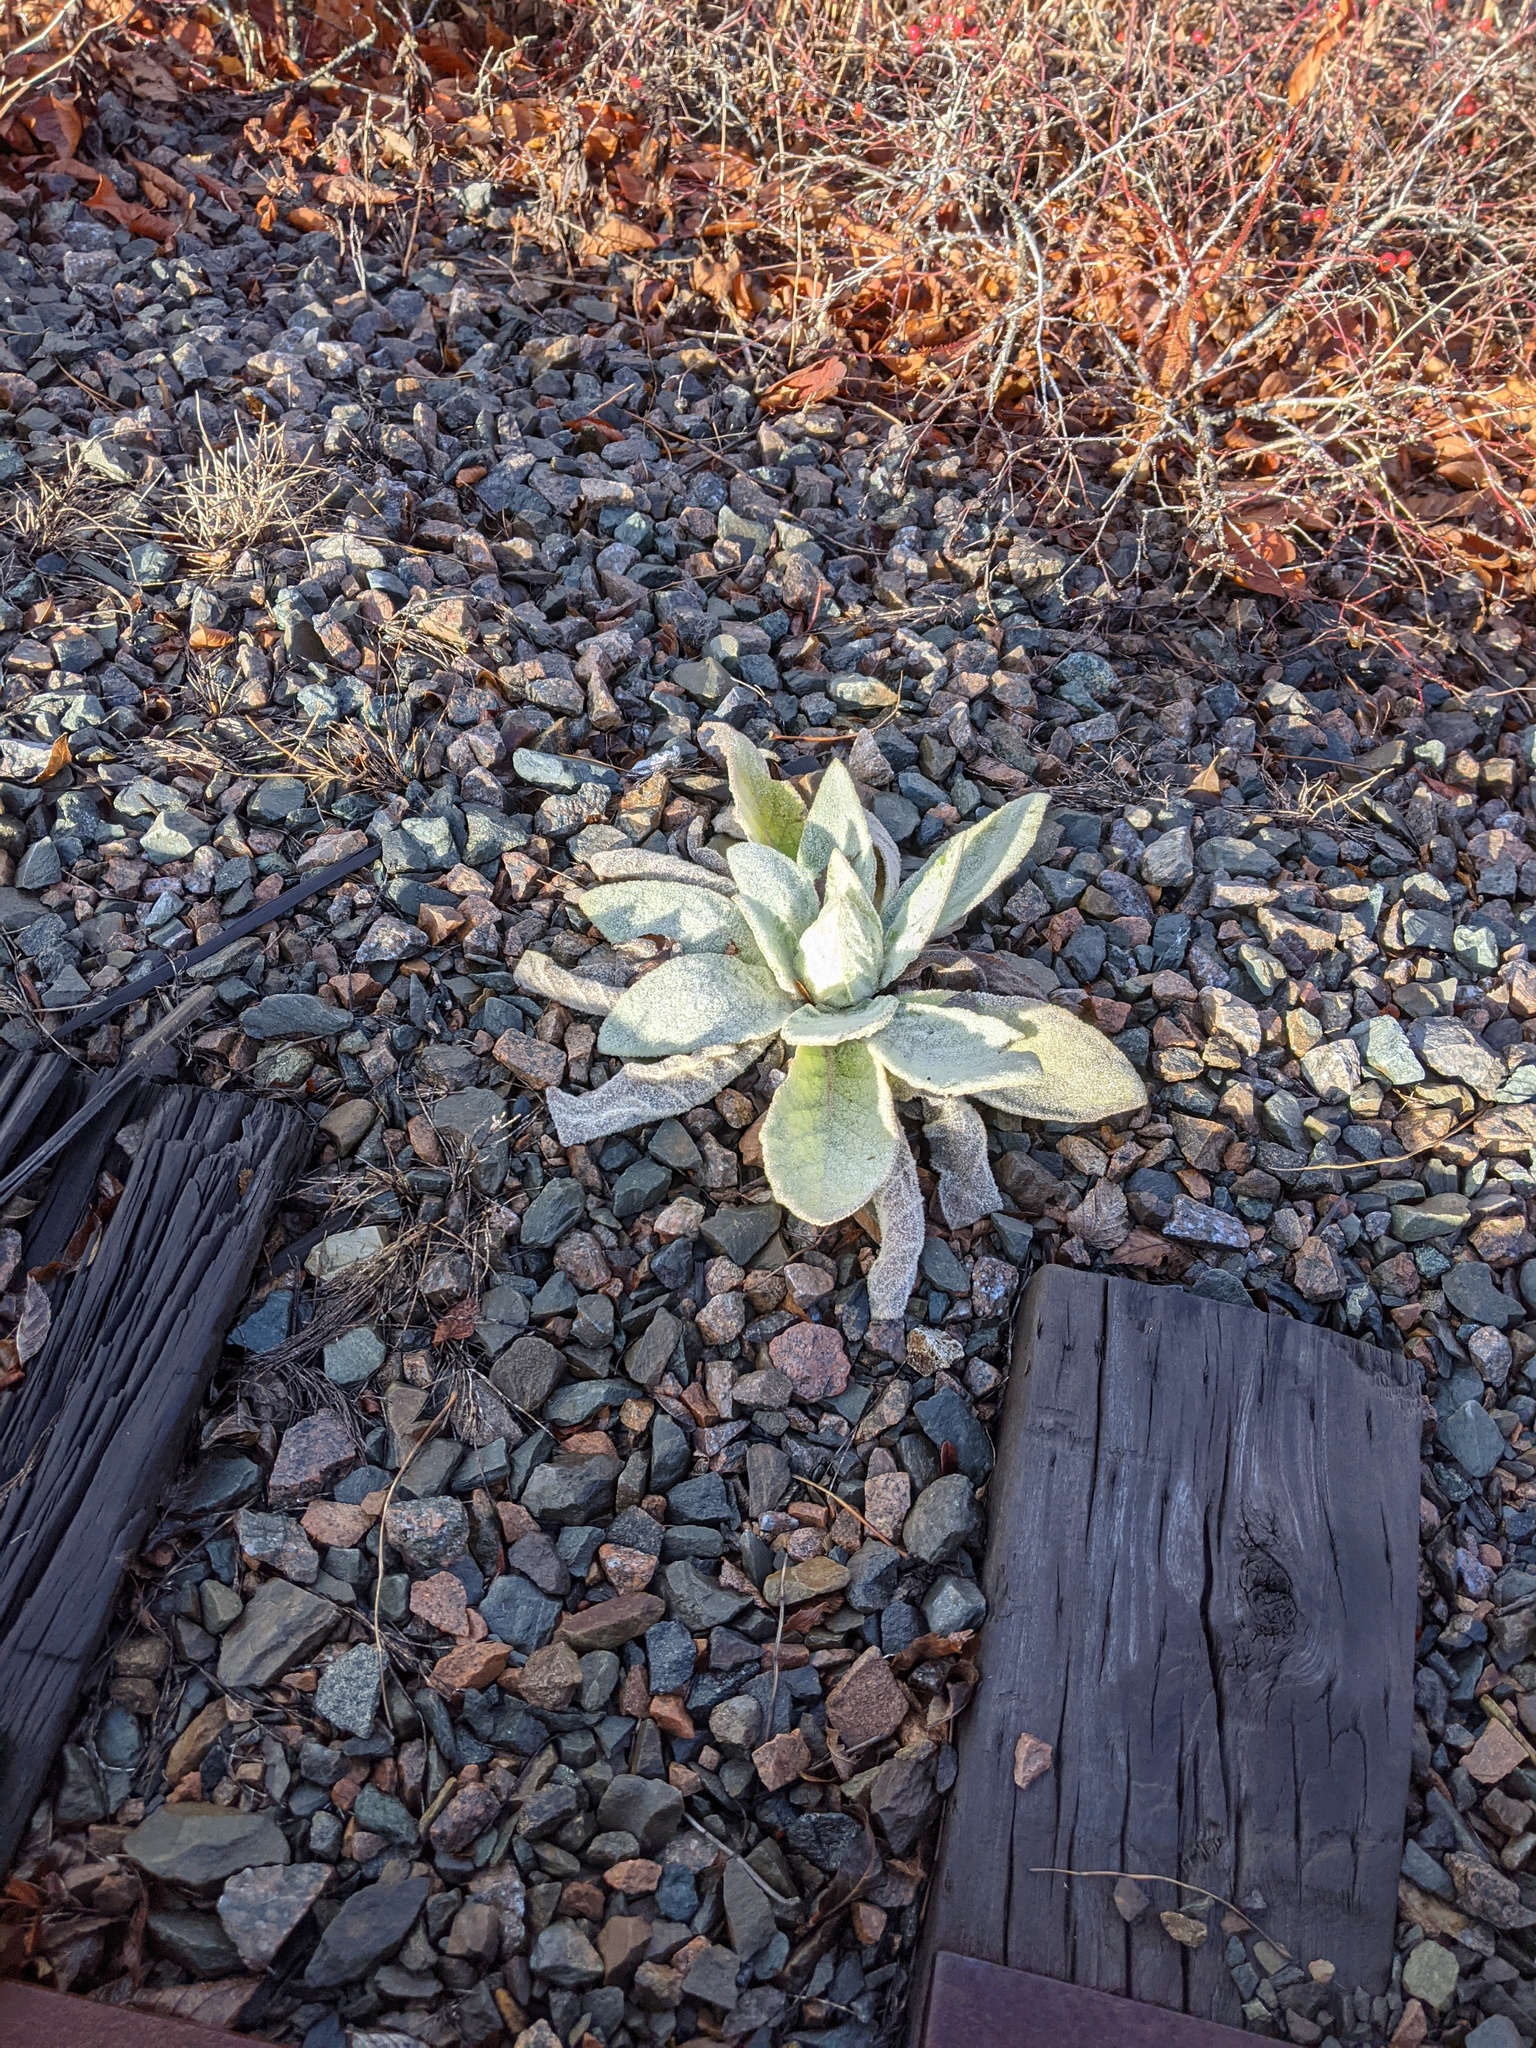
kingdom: Plantae
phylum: Tracheophyta
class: Magnoliopsida
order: Lamiales
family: Scrophulariaceae
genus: Verbascum
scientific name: Verbascum thapsus
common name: Common mullein
